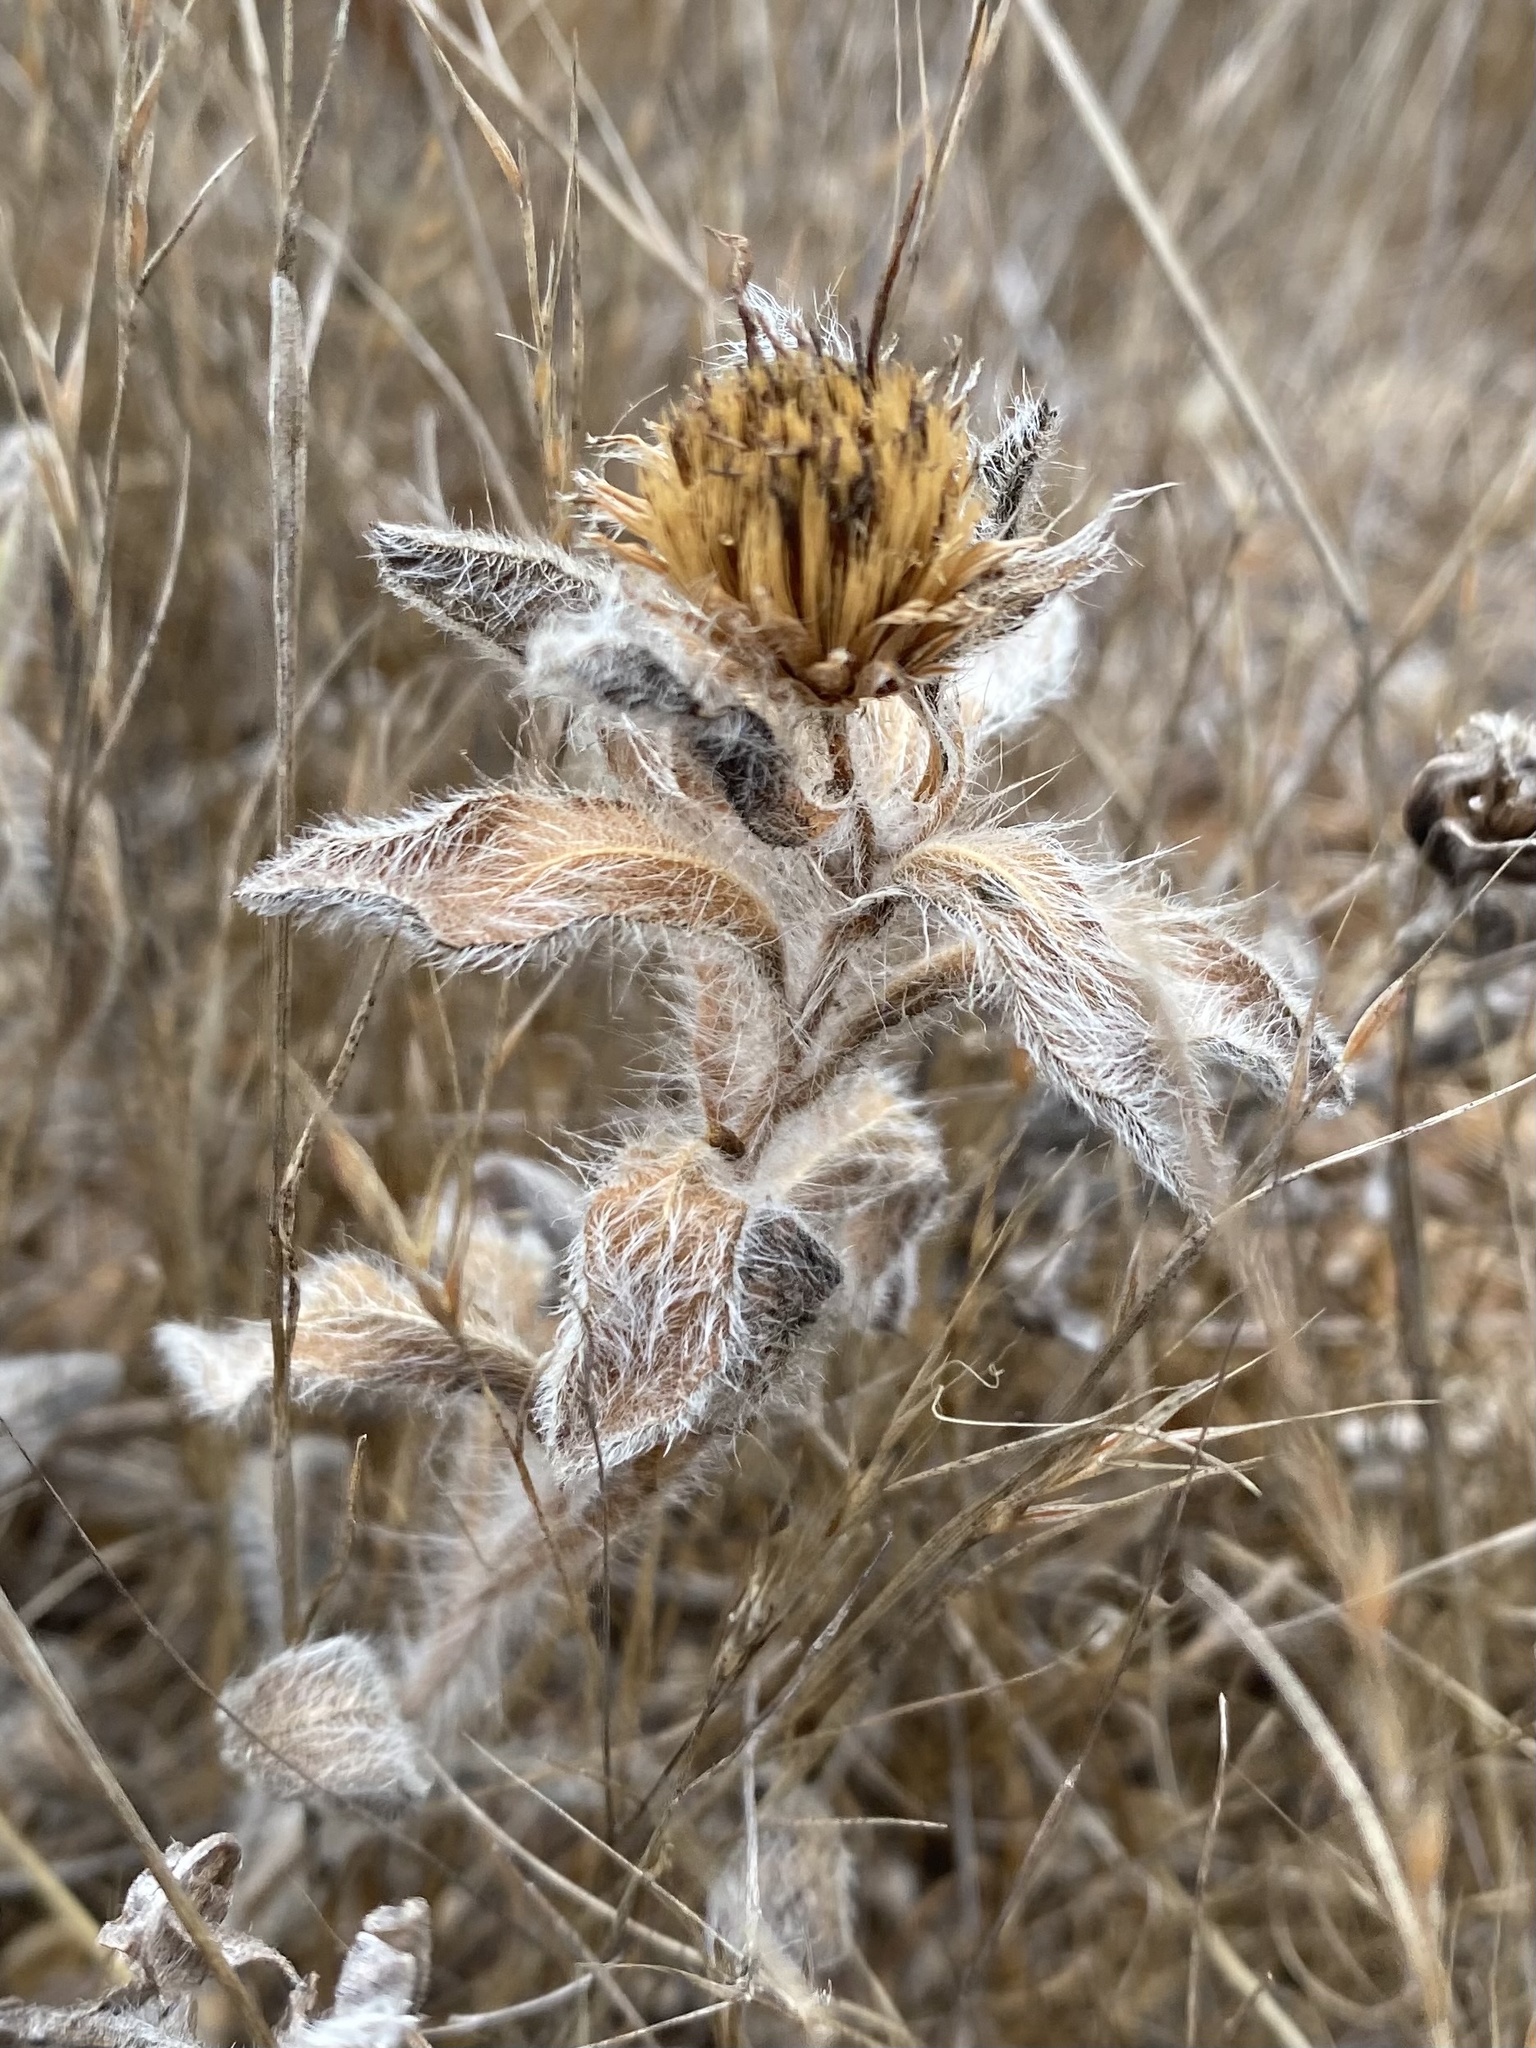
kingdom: Plantae
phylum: Tracheophyta
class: Magnoliopsida
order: Asterales
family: Asteraceae
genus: Heterotheca
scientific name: Heterotheca sessiliflora
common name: Sessile-flower golden-aster
